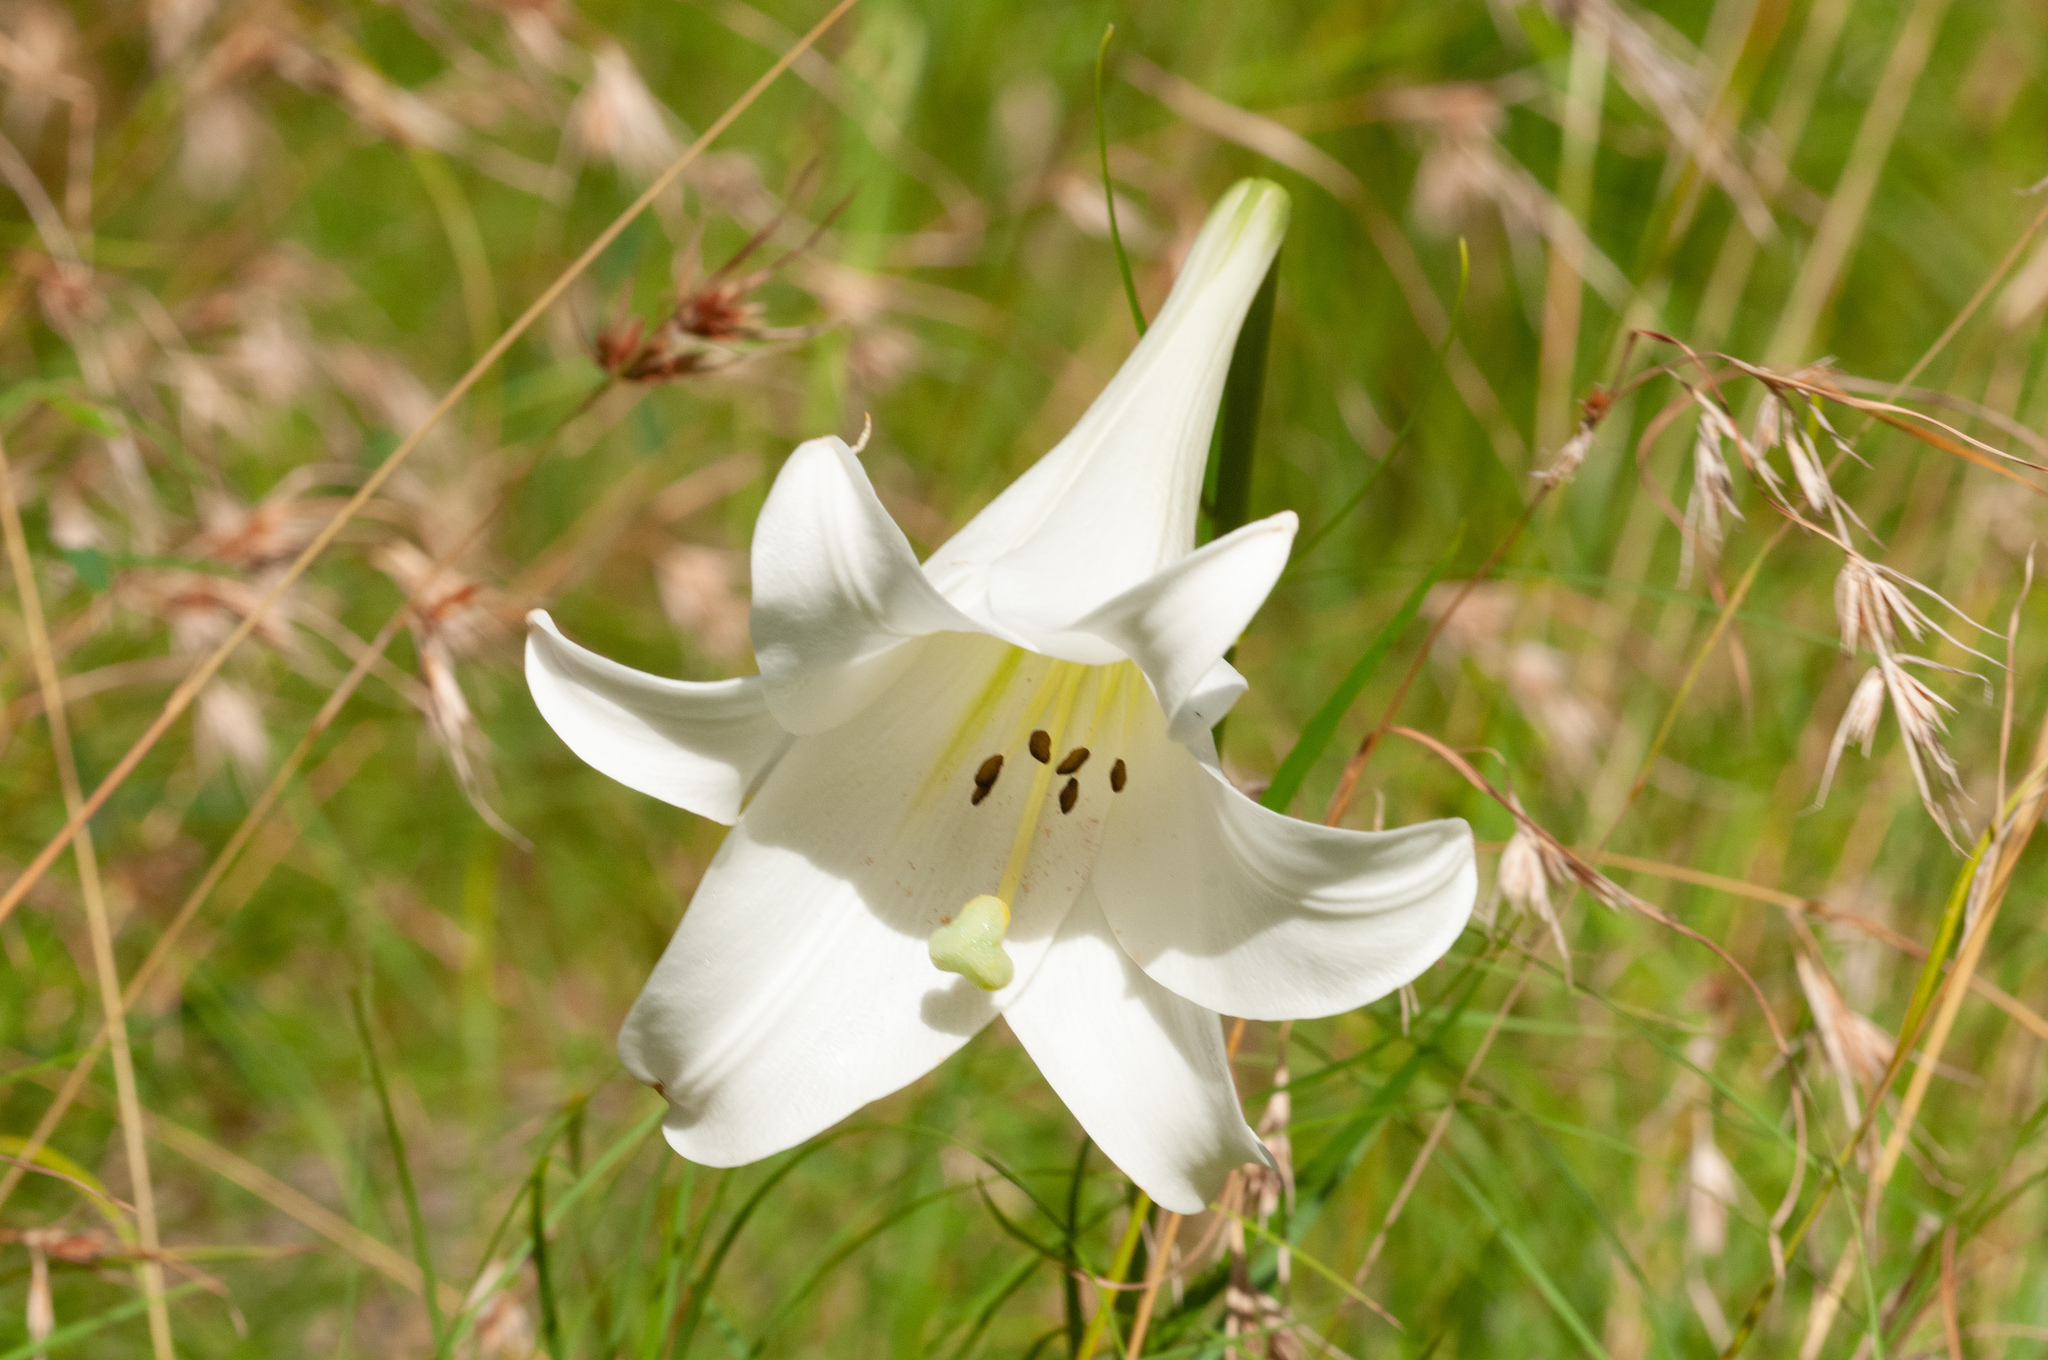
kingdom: Plantae
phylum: Tracheophyta
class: Liliopsida
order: Liliales
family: Liliaceae
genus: Lilium
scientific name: Lilium formosanum
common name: Formosa lily
